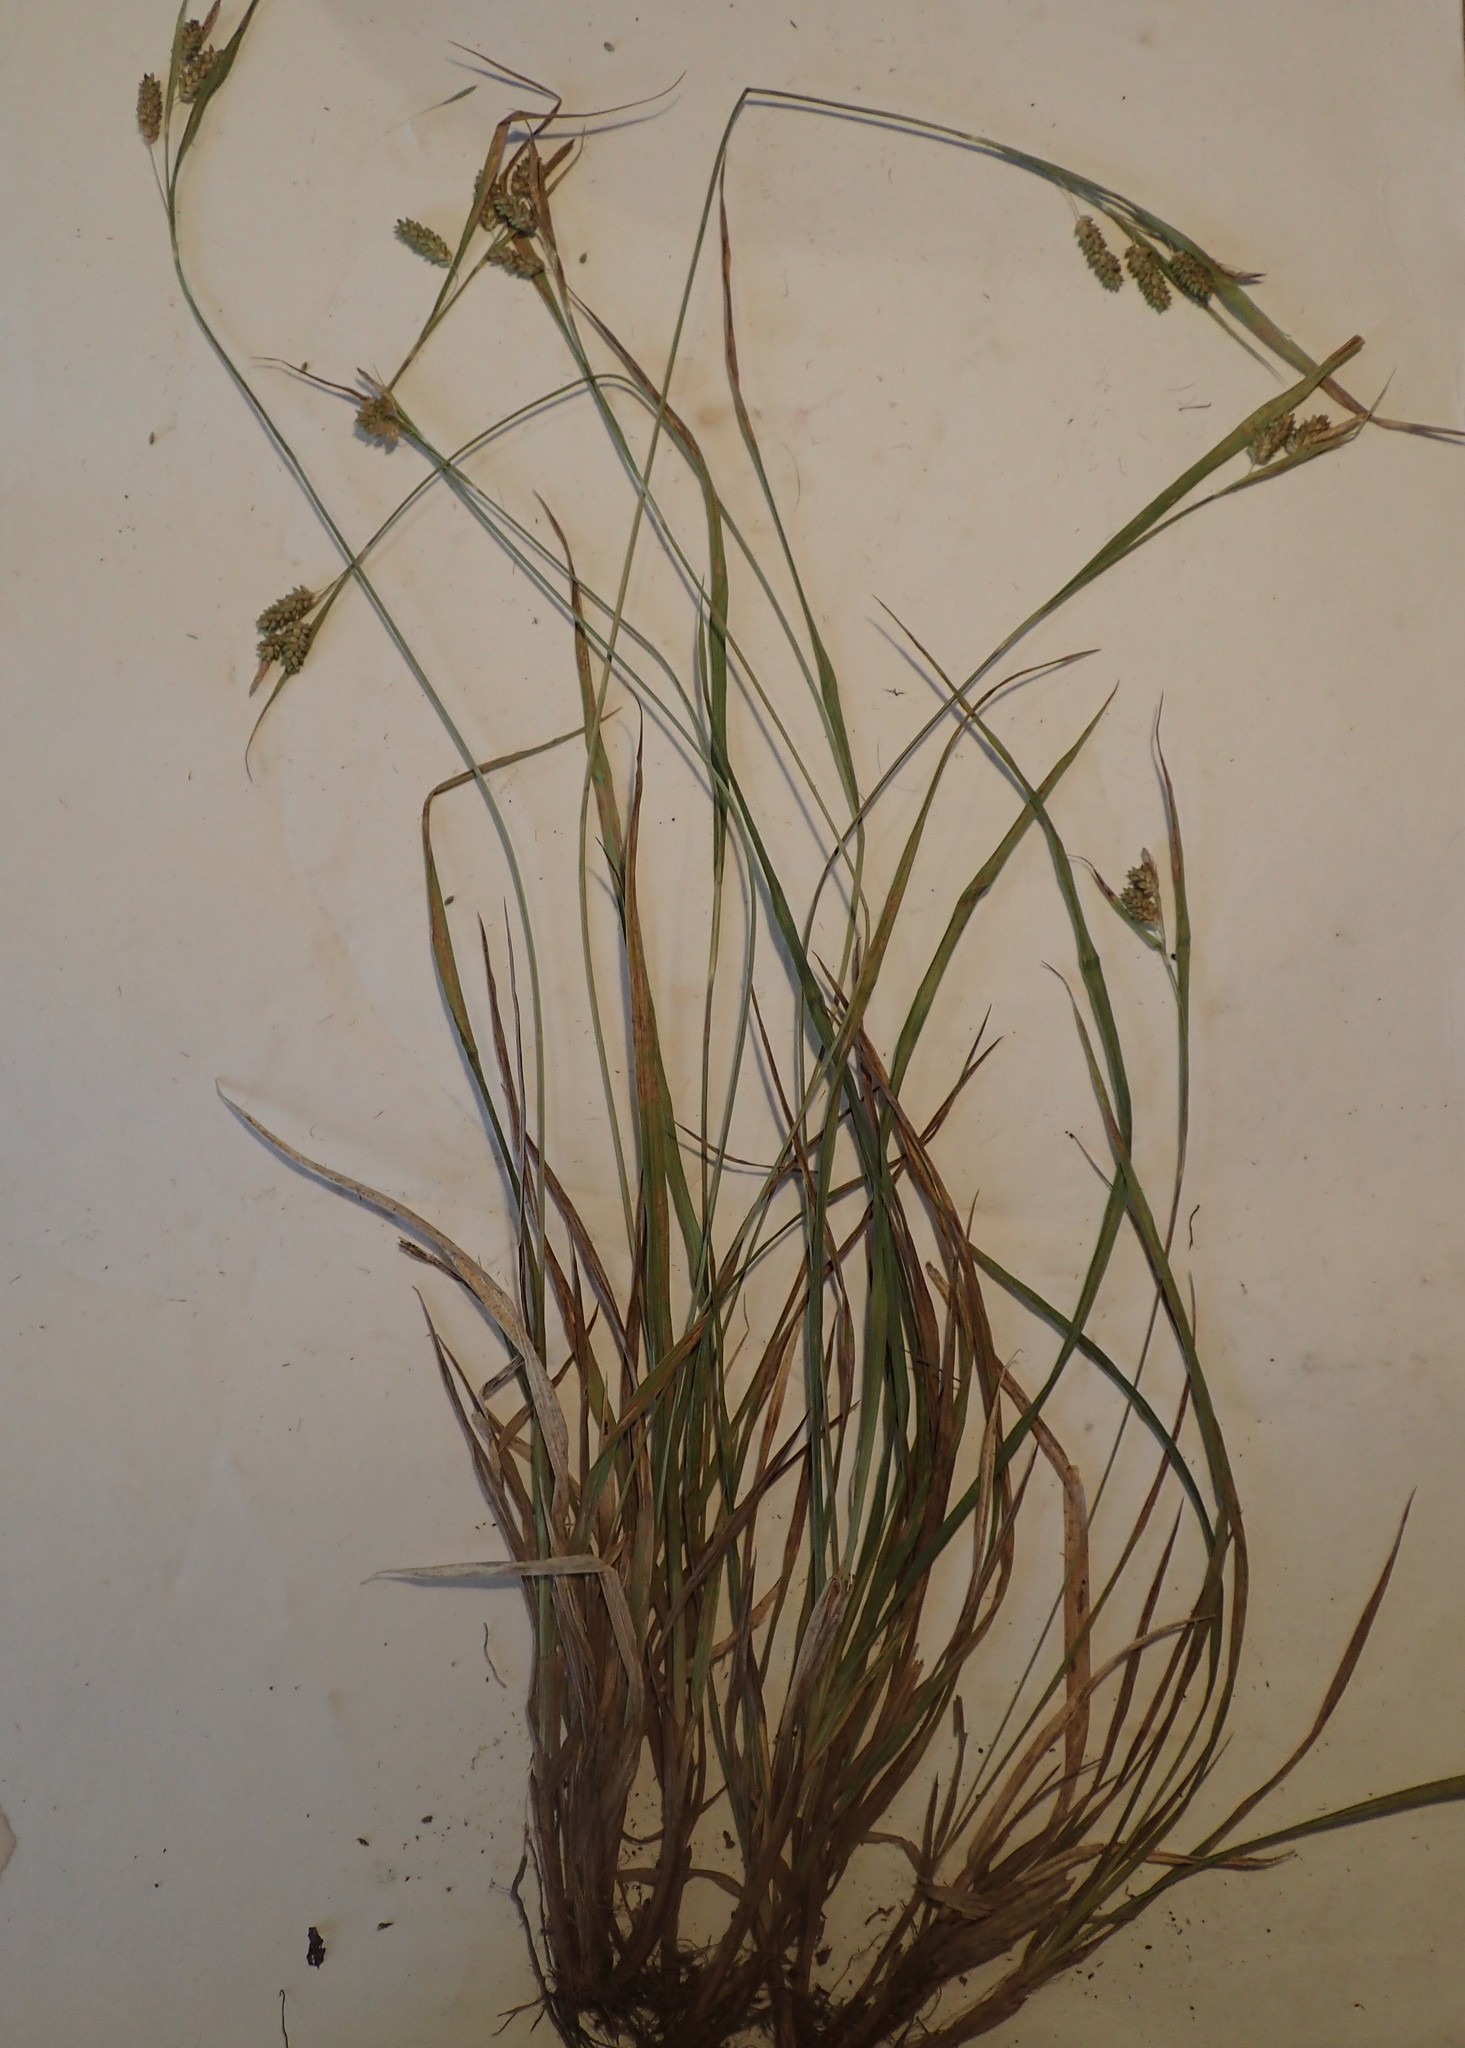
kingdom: Plantae
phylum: Tracheophyta
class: Liliopsida
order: Poales
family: Cyperaceae
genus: Carex
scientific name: Carex pallescens
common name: Pale sedge
